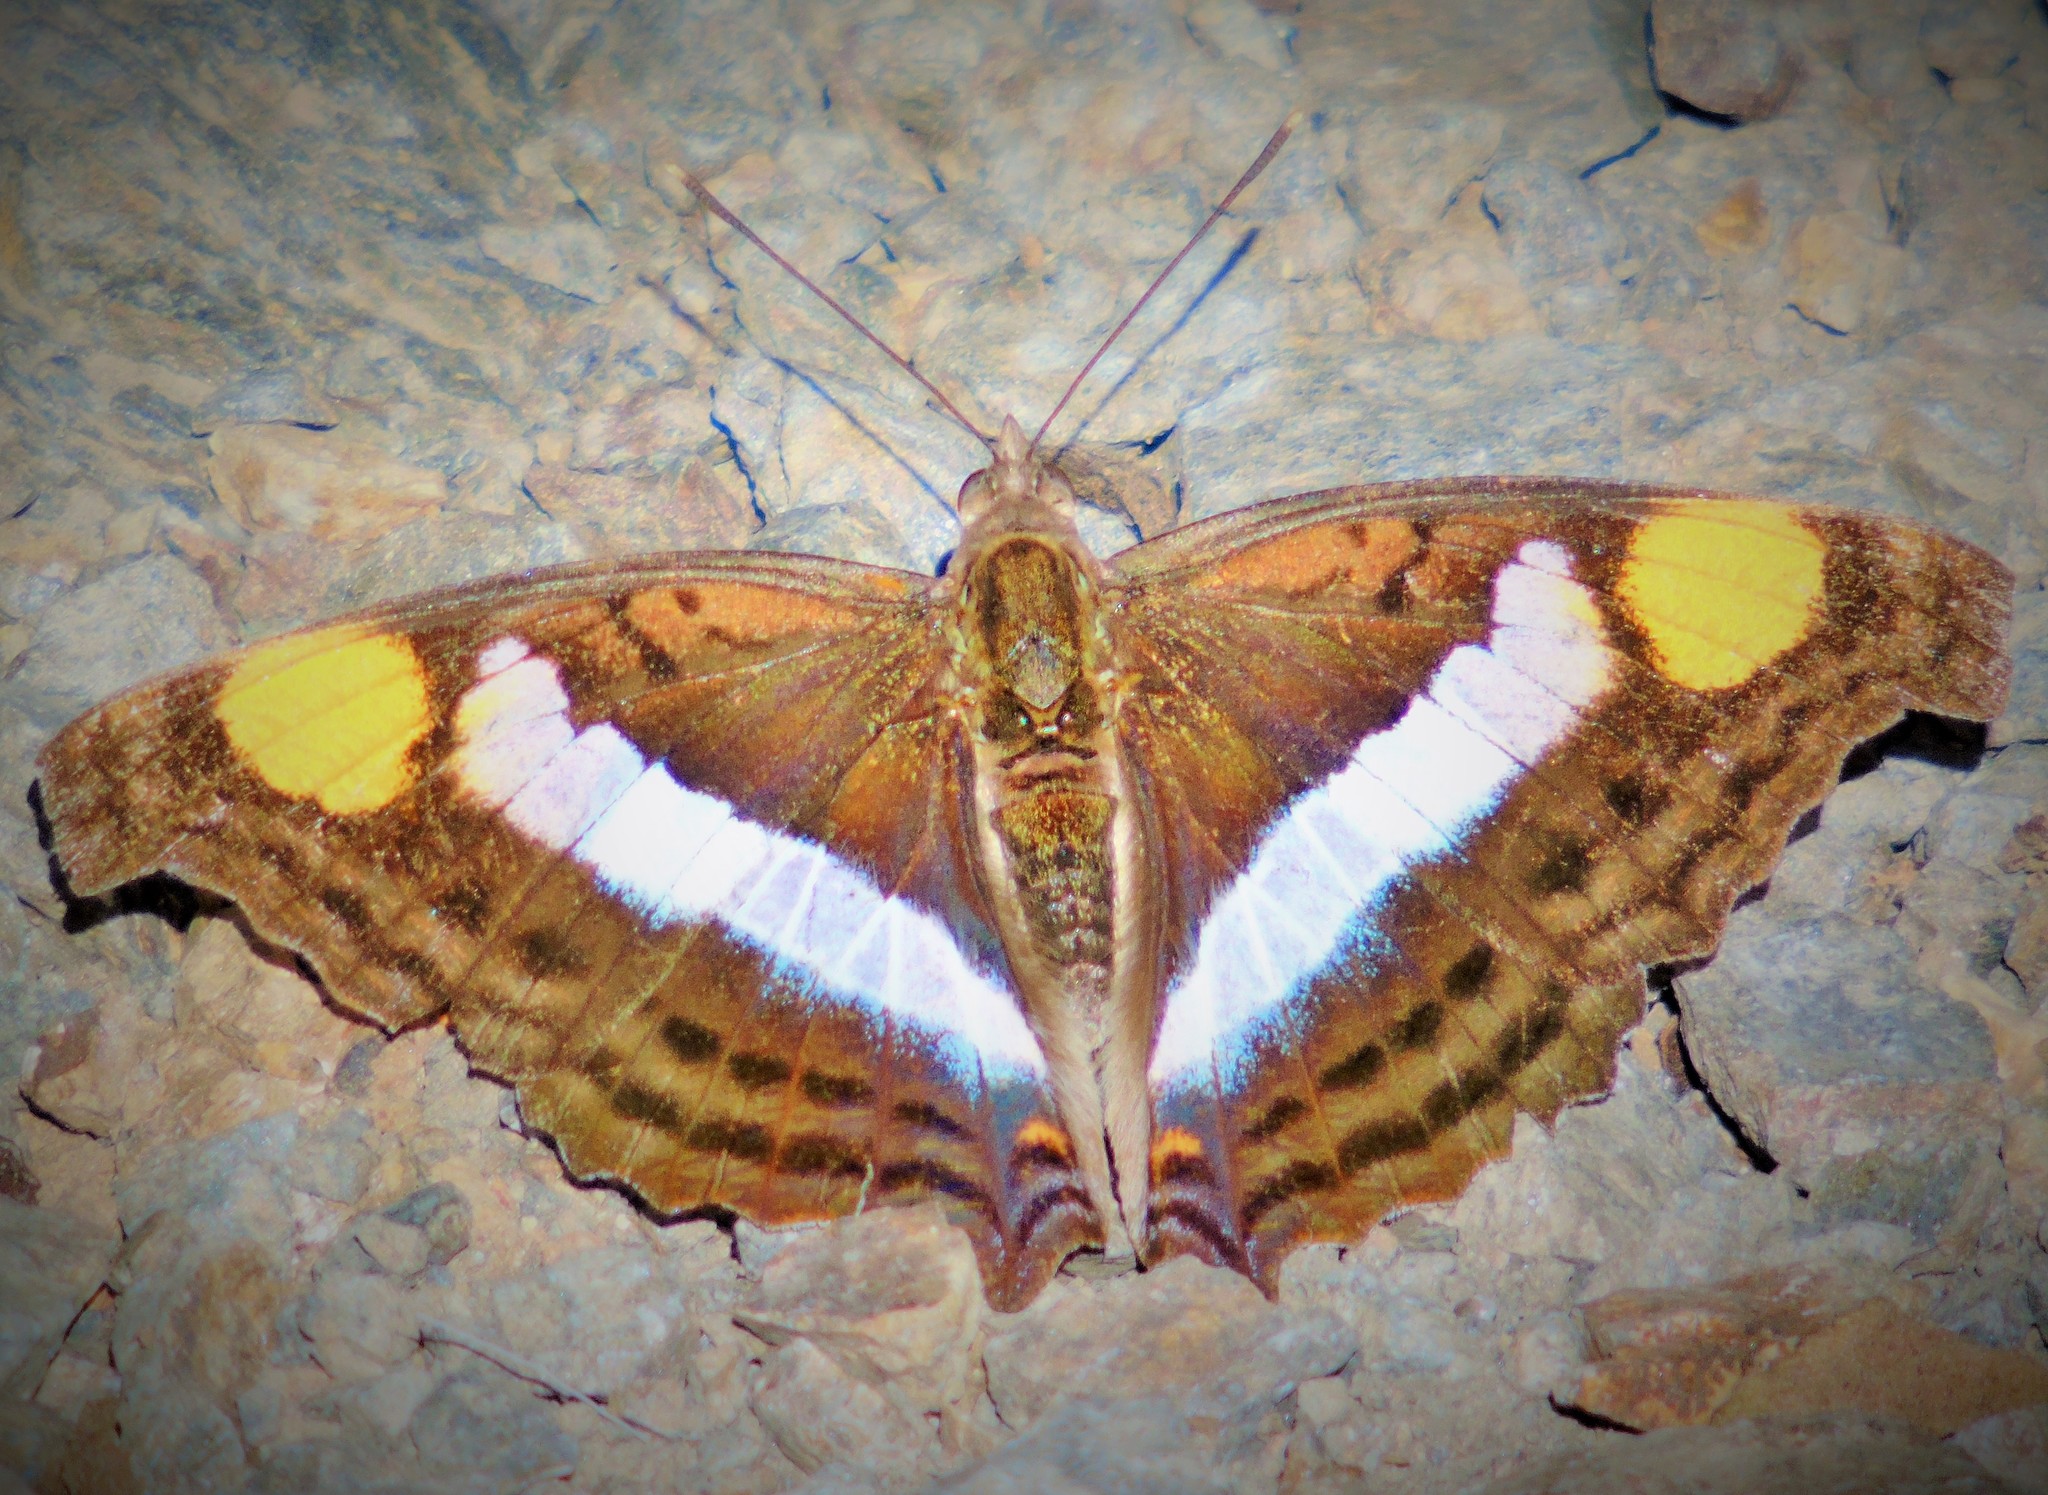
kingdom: Animalia
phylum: Arthropoda
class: Insecta
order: Lepidoptera
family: Nymphalidae
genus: Doxocopa
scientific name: Doxocopa laure
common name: Silver emperor
